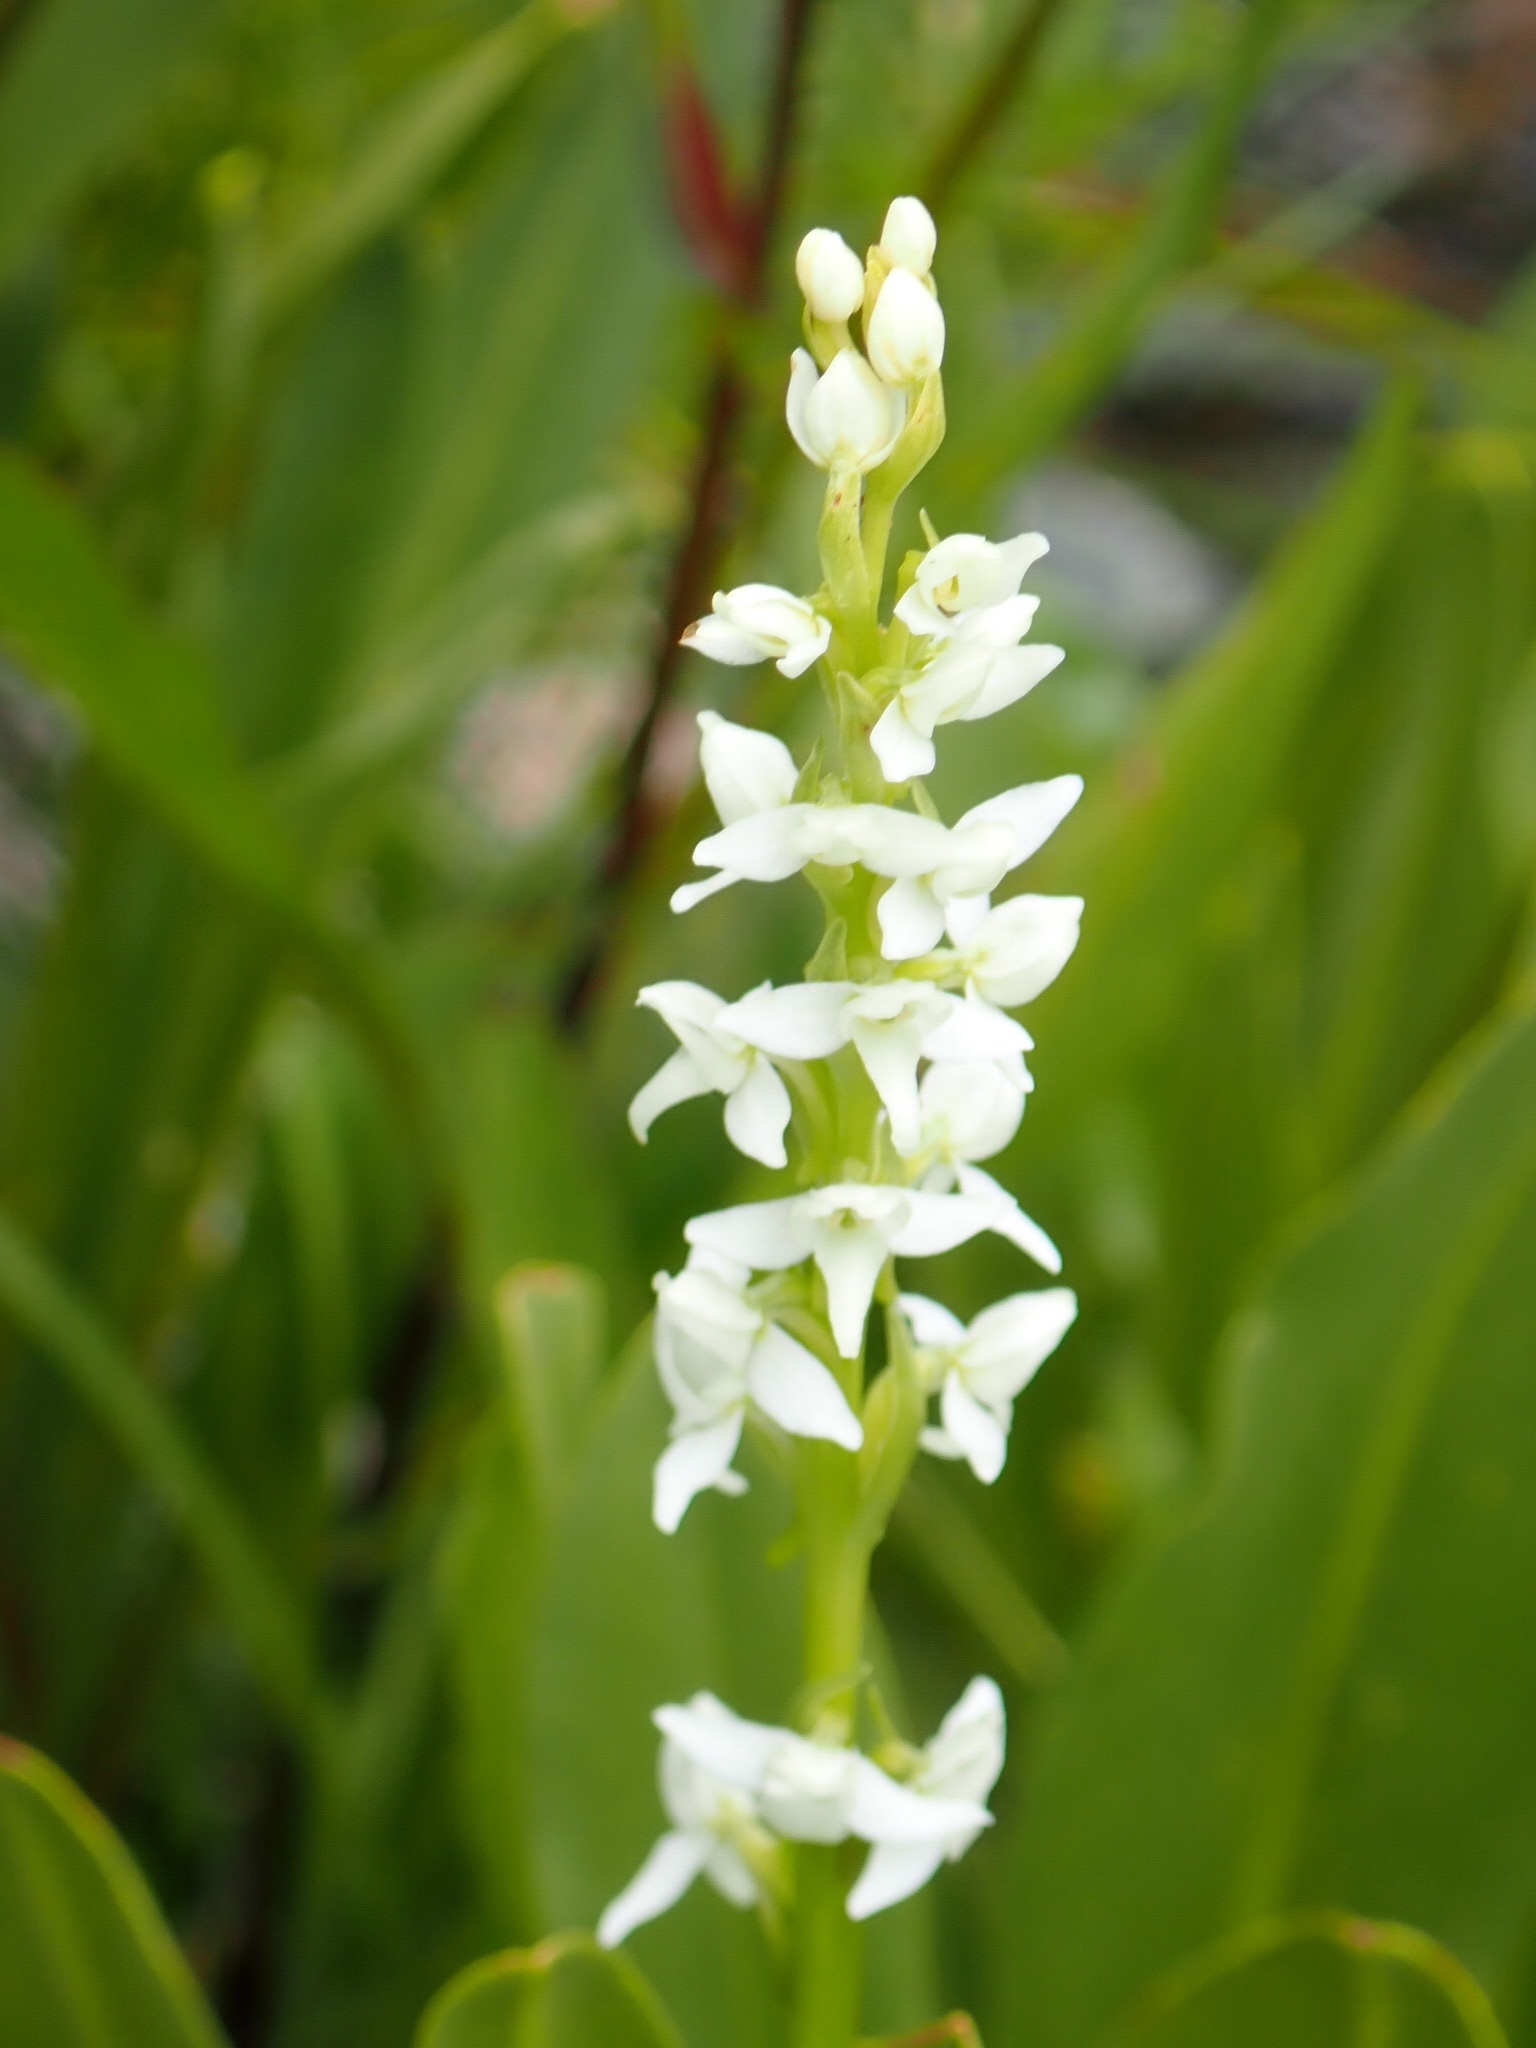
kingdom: Plantae
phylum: Tracheophyta
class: Liliopsida
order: Asparagales
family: Orchidaceae
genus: Platanthera
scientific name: Platanthera dilatata
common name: Bog candles
